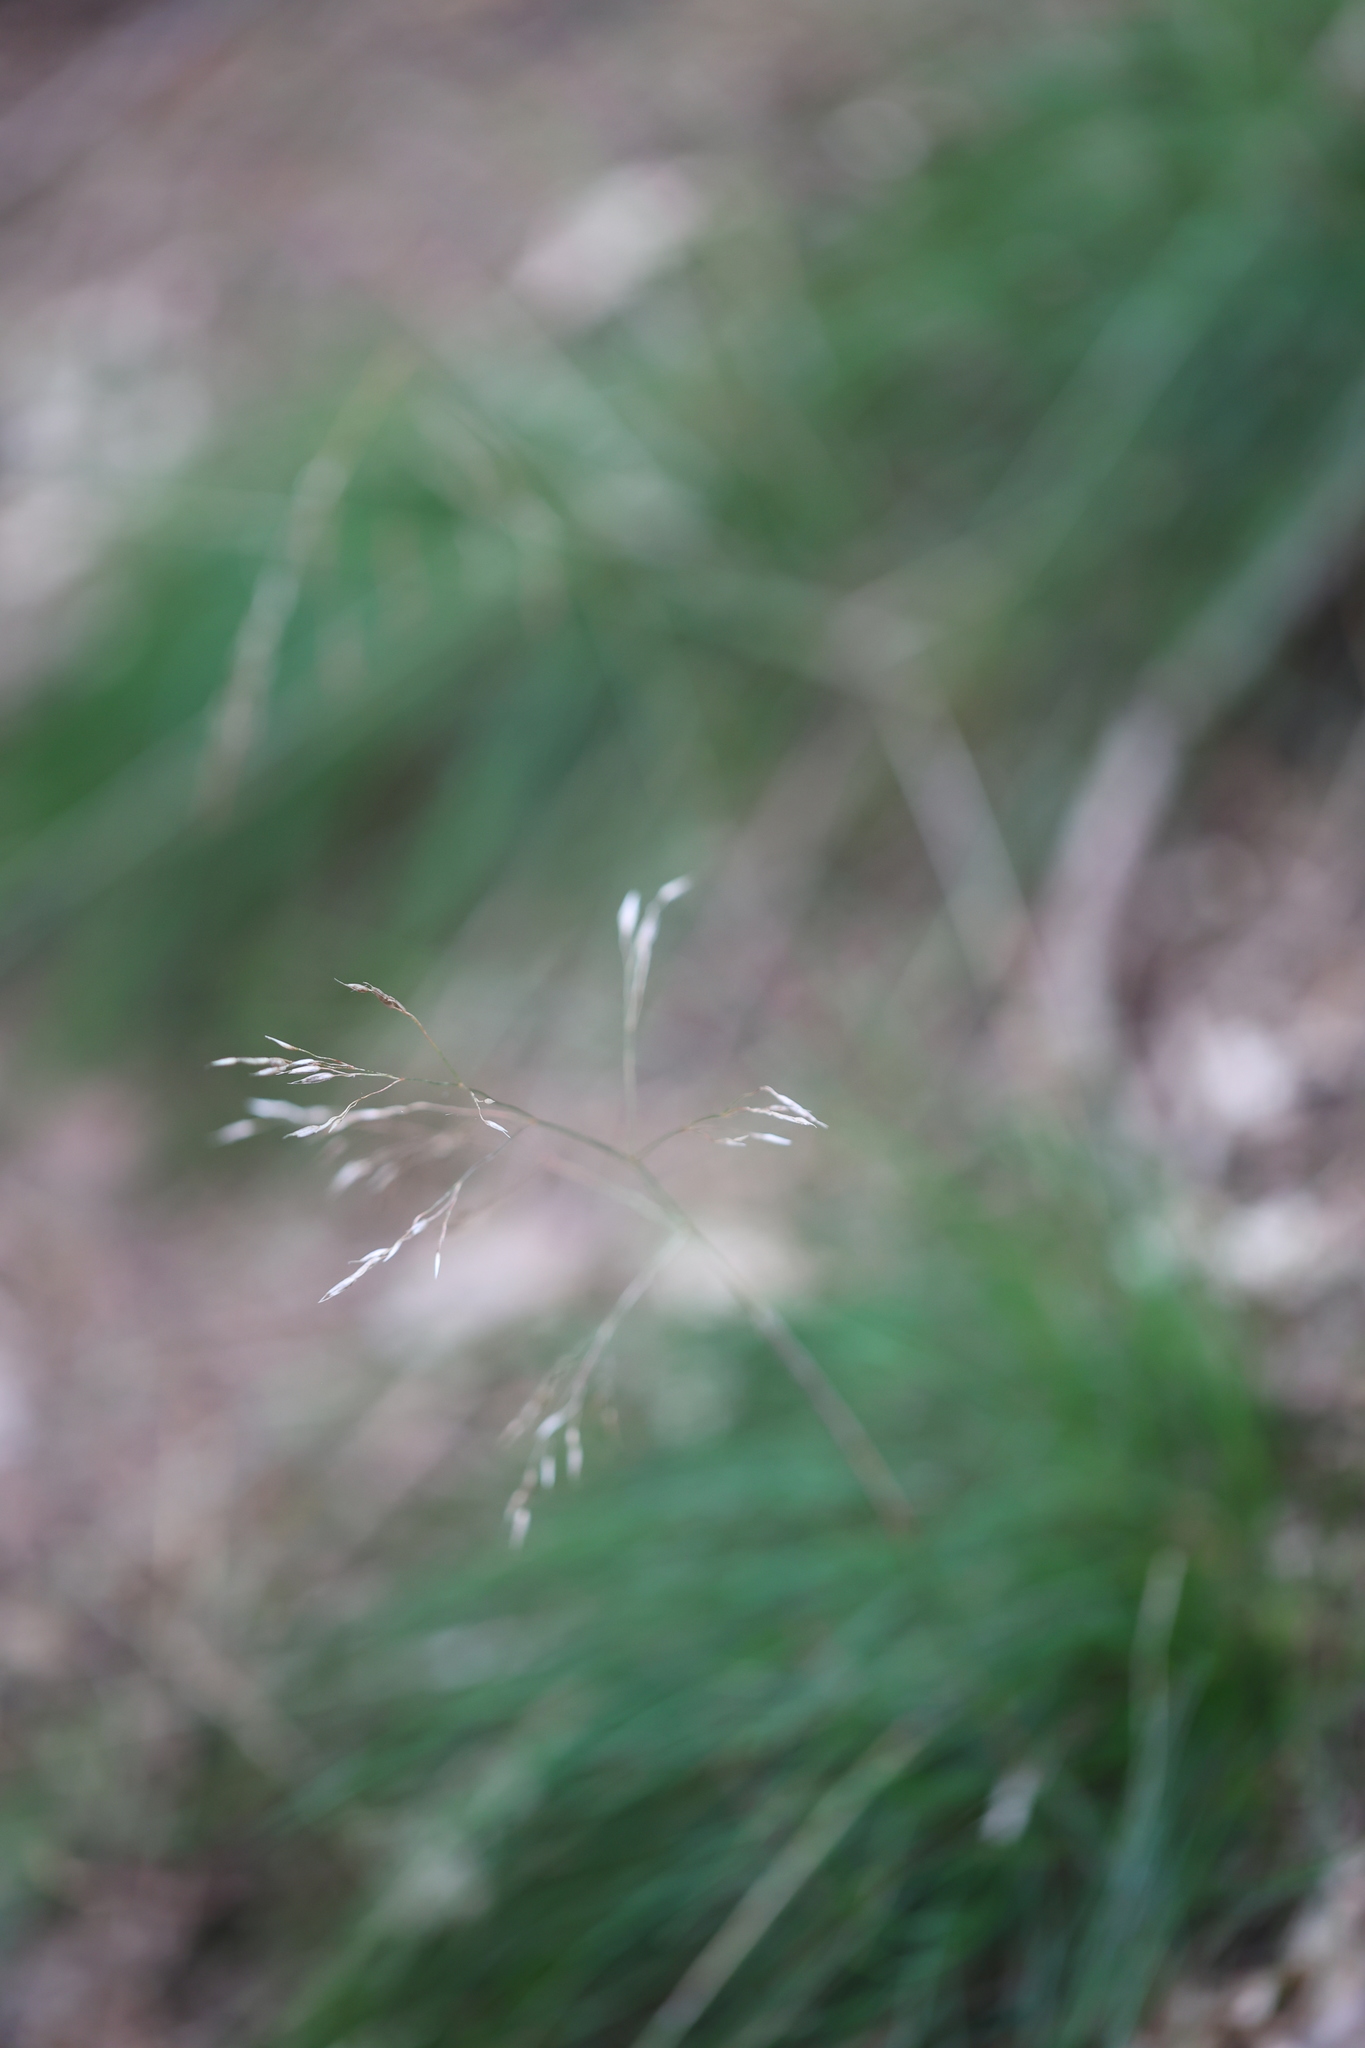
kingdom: Plantae
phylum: Tracheophyta
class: Liliopsida
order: Poales
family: Poaceae
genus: Avenella
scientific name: Avenella flexuosa
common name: Wavy hairgrass
